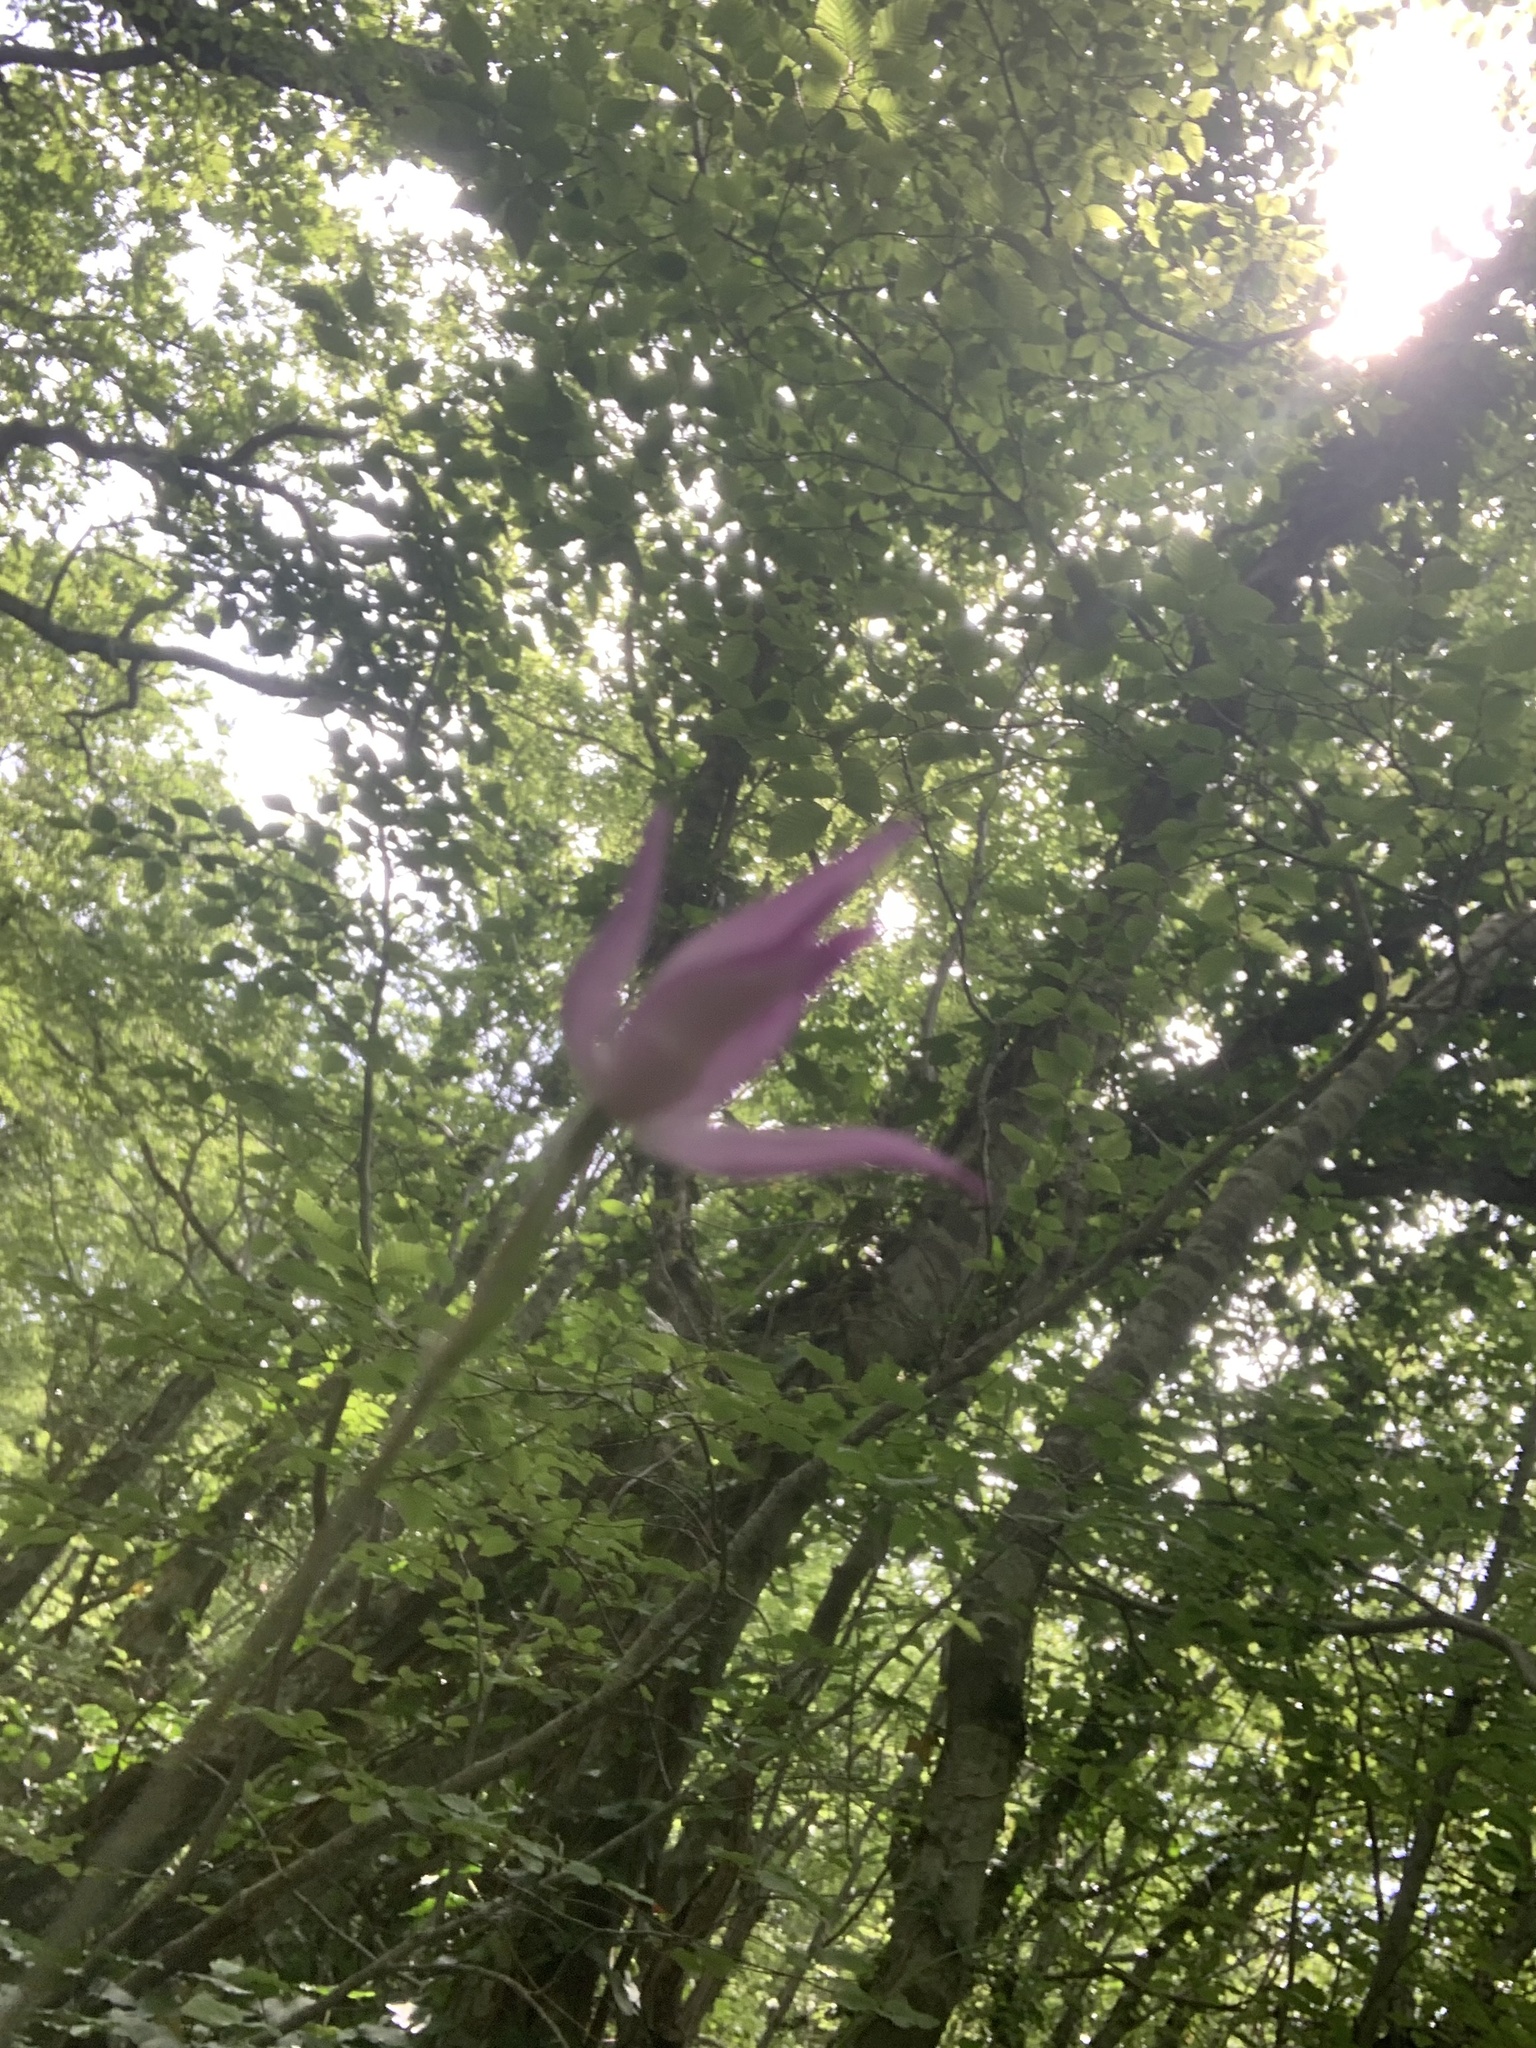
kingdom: Plantae
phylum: Tracheophyta
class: Liliopsida
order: Asparagales
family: Orchidaceae
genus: Cephalanthera
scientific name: Cephalanthera rubra
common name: Red helleborine
